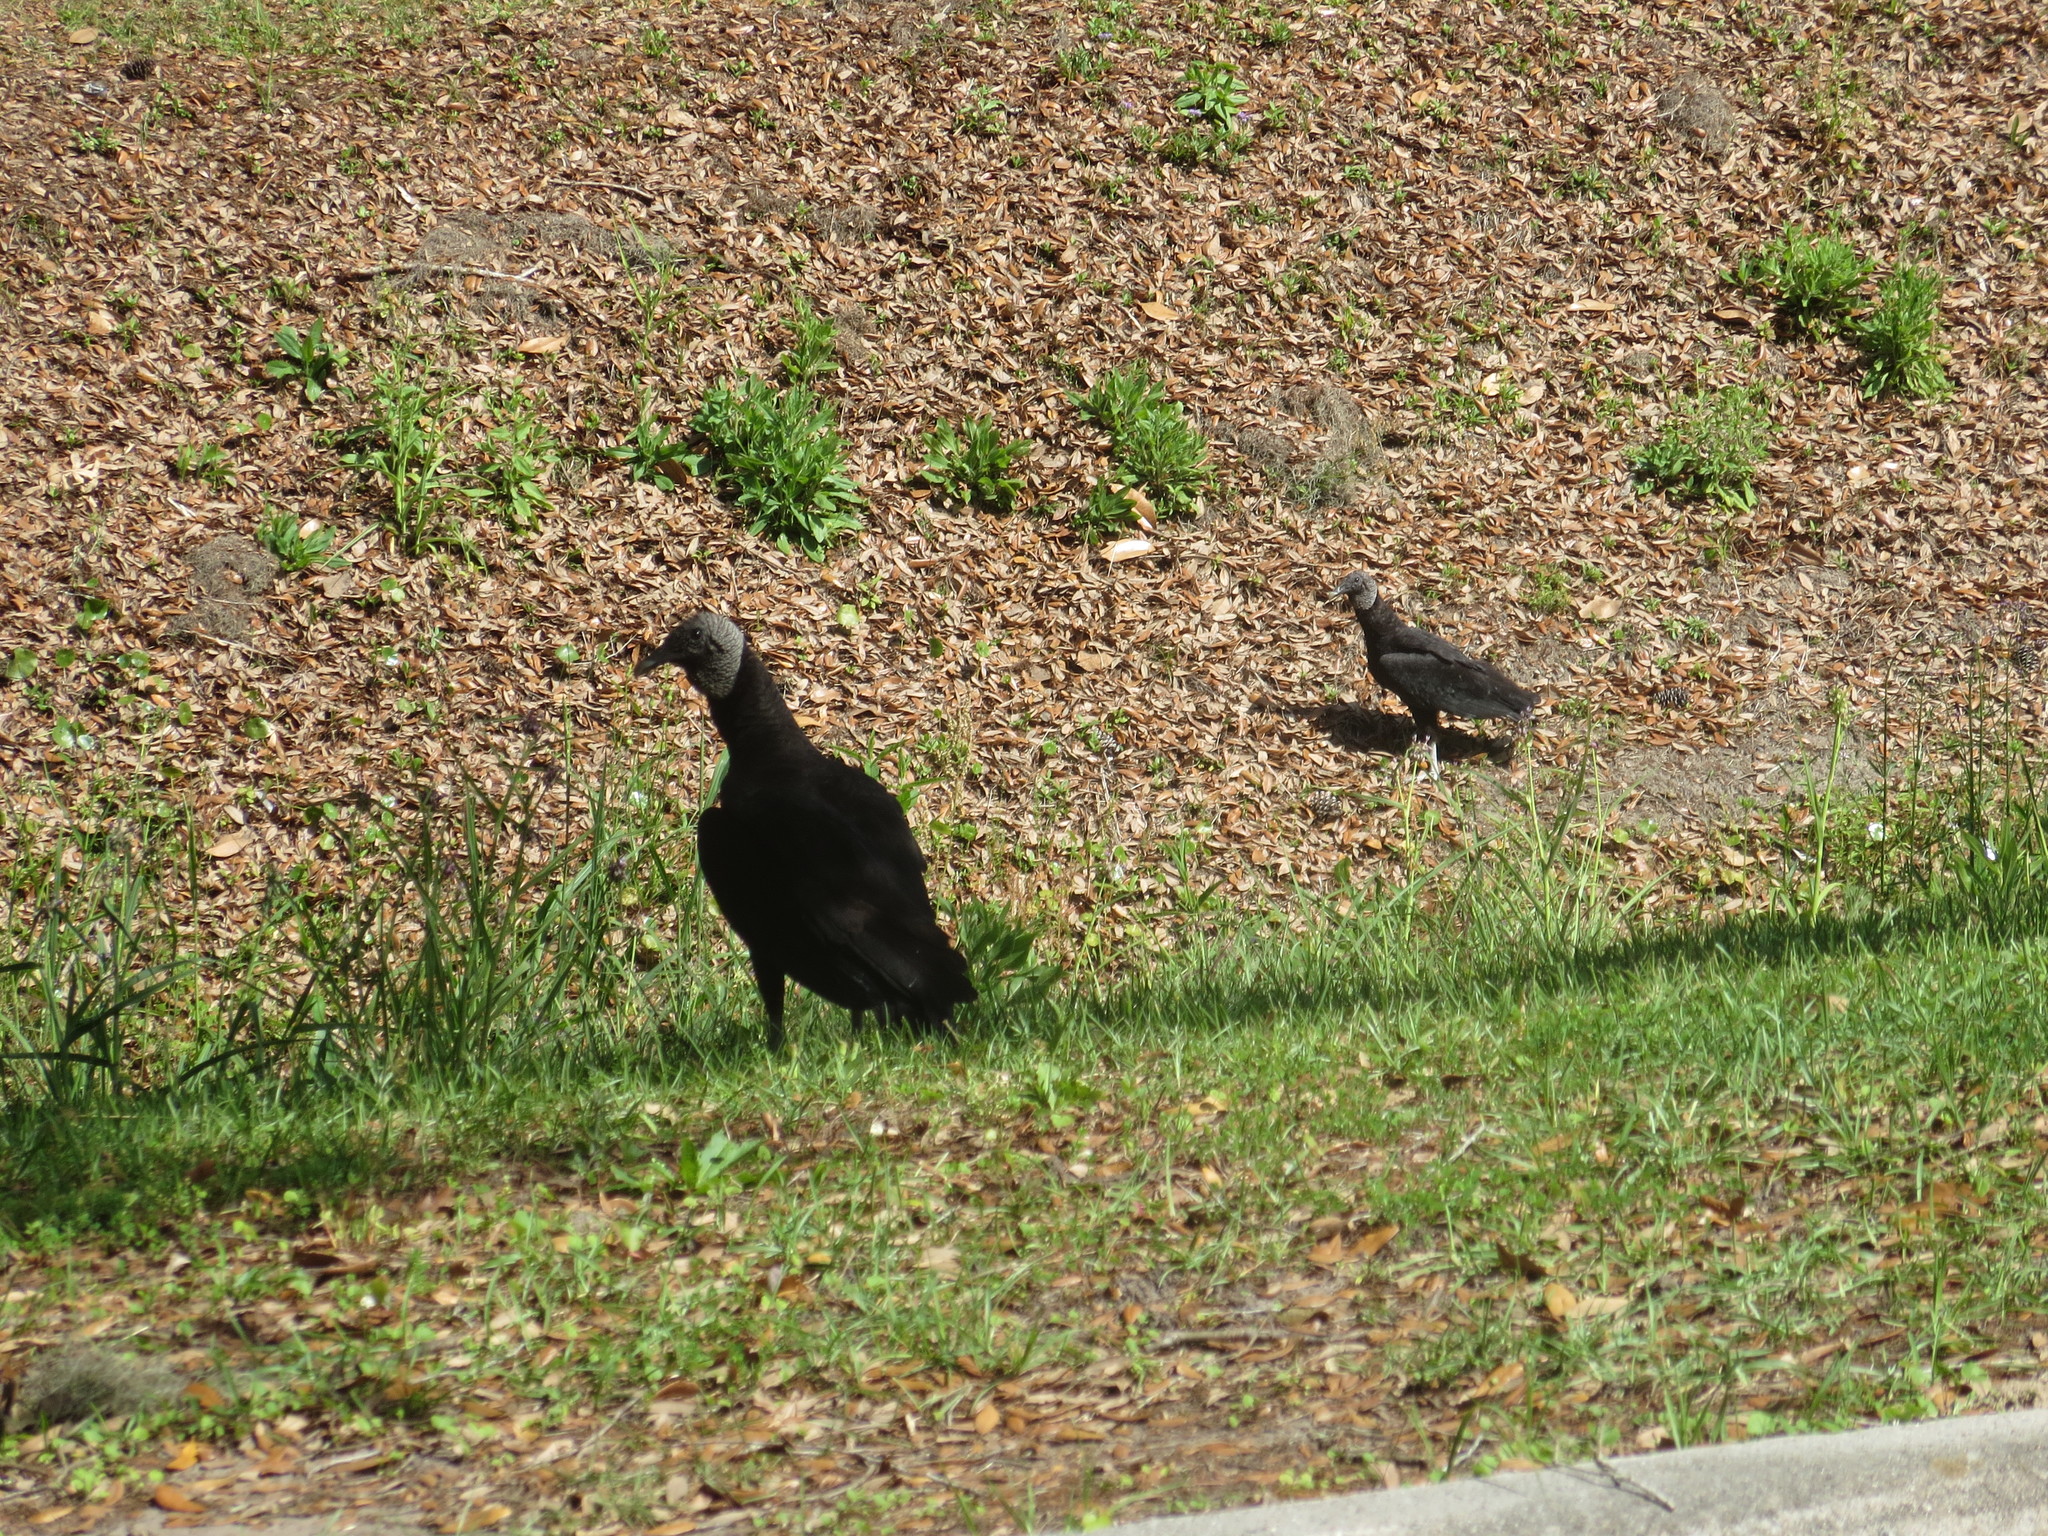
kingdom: Animalia
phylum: Chordata
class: Aves
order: Accipitriformes
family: Cathartidae
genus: Coragyps
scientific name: Coragyps atratus
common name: Black vulture
